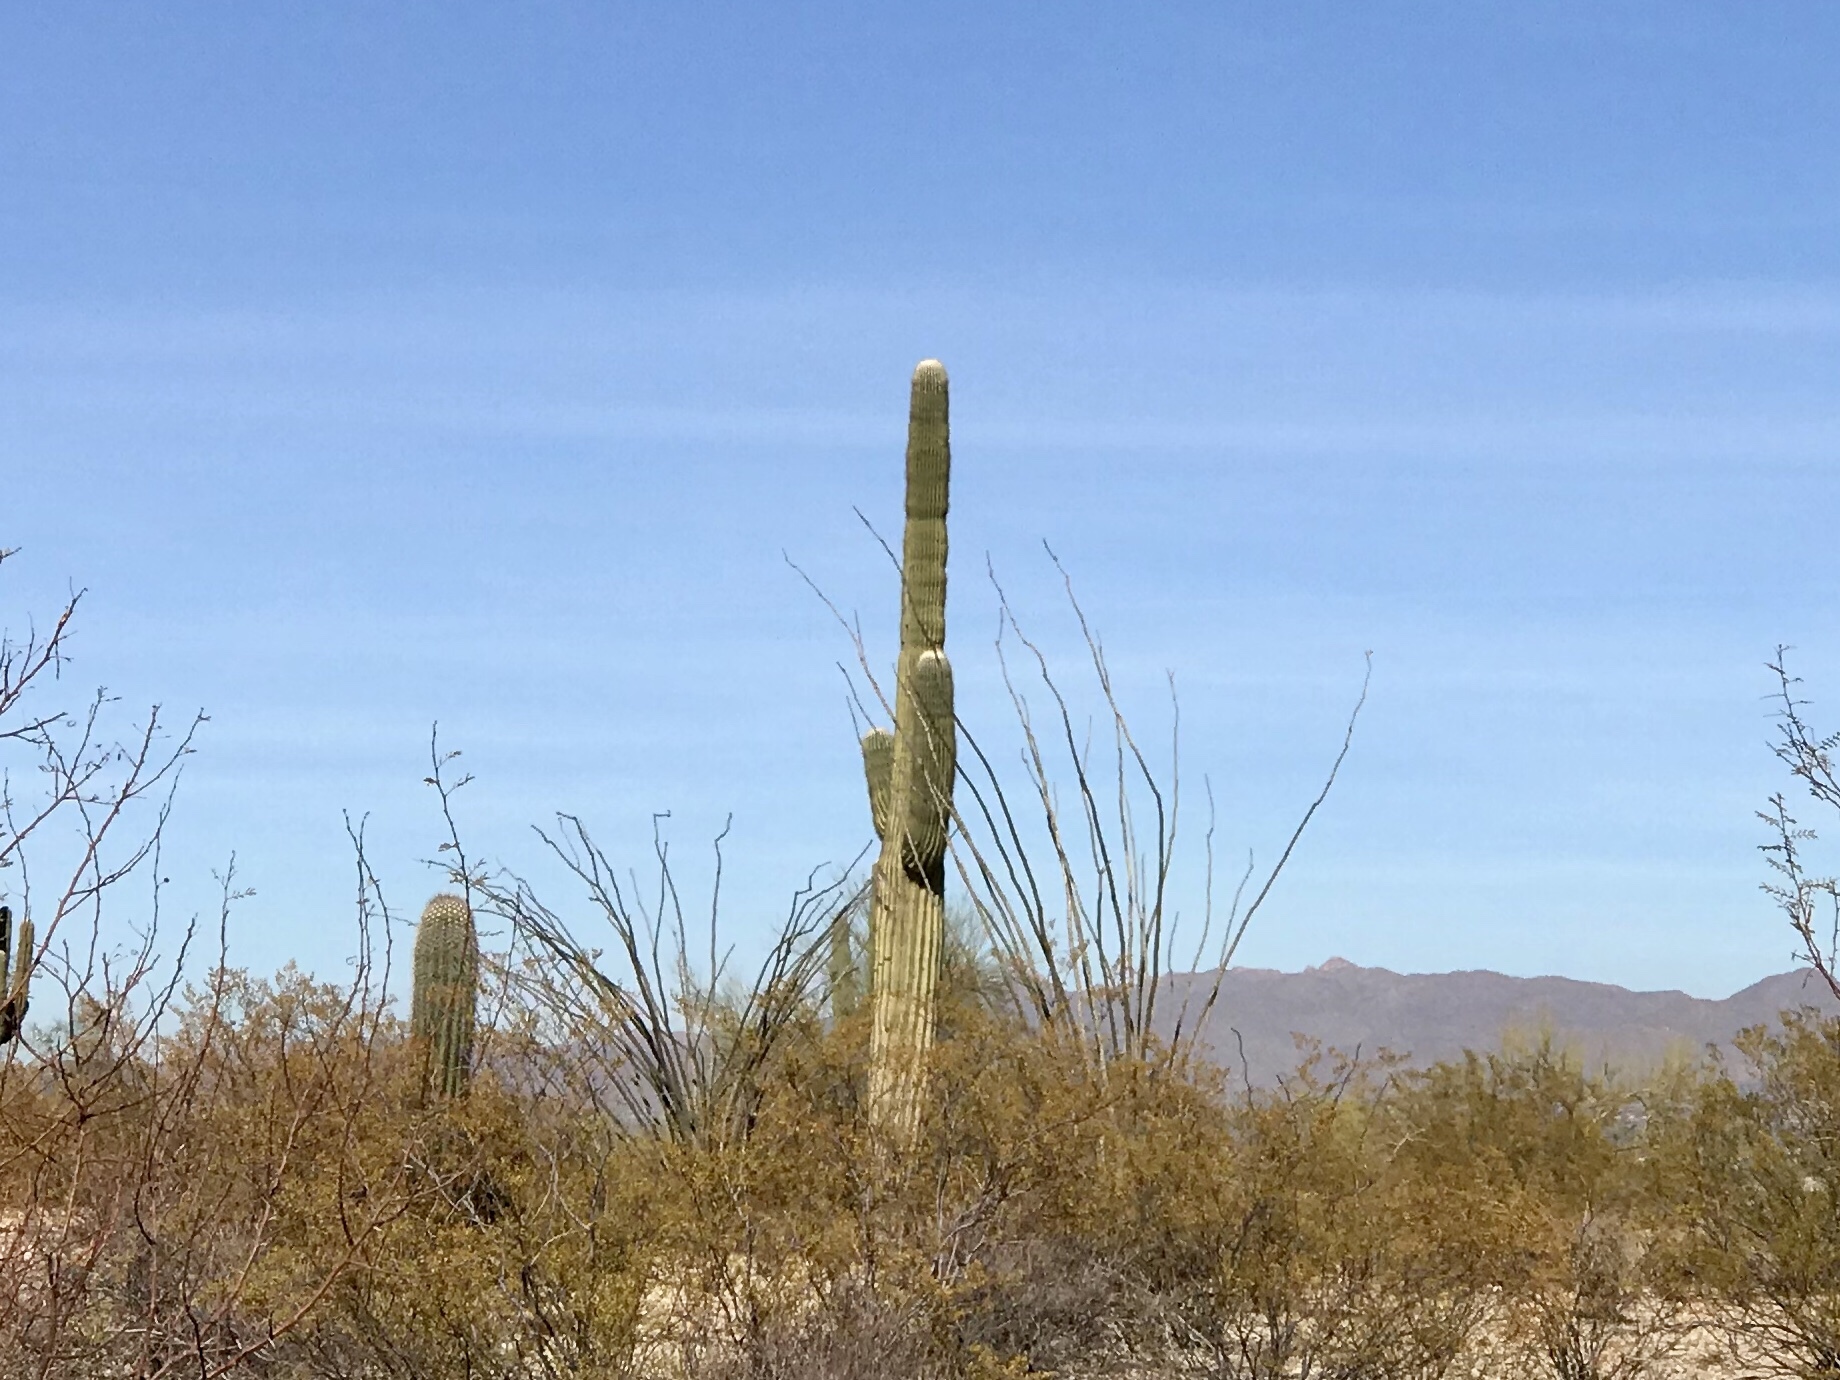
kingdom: Plantae
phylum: Tracheophyta
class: Magnoliopsida
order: Caryophyllales
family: Cactaceae
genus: Carnegiea
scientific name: Carnegiea gigantea
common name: Saguaro
